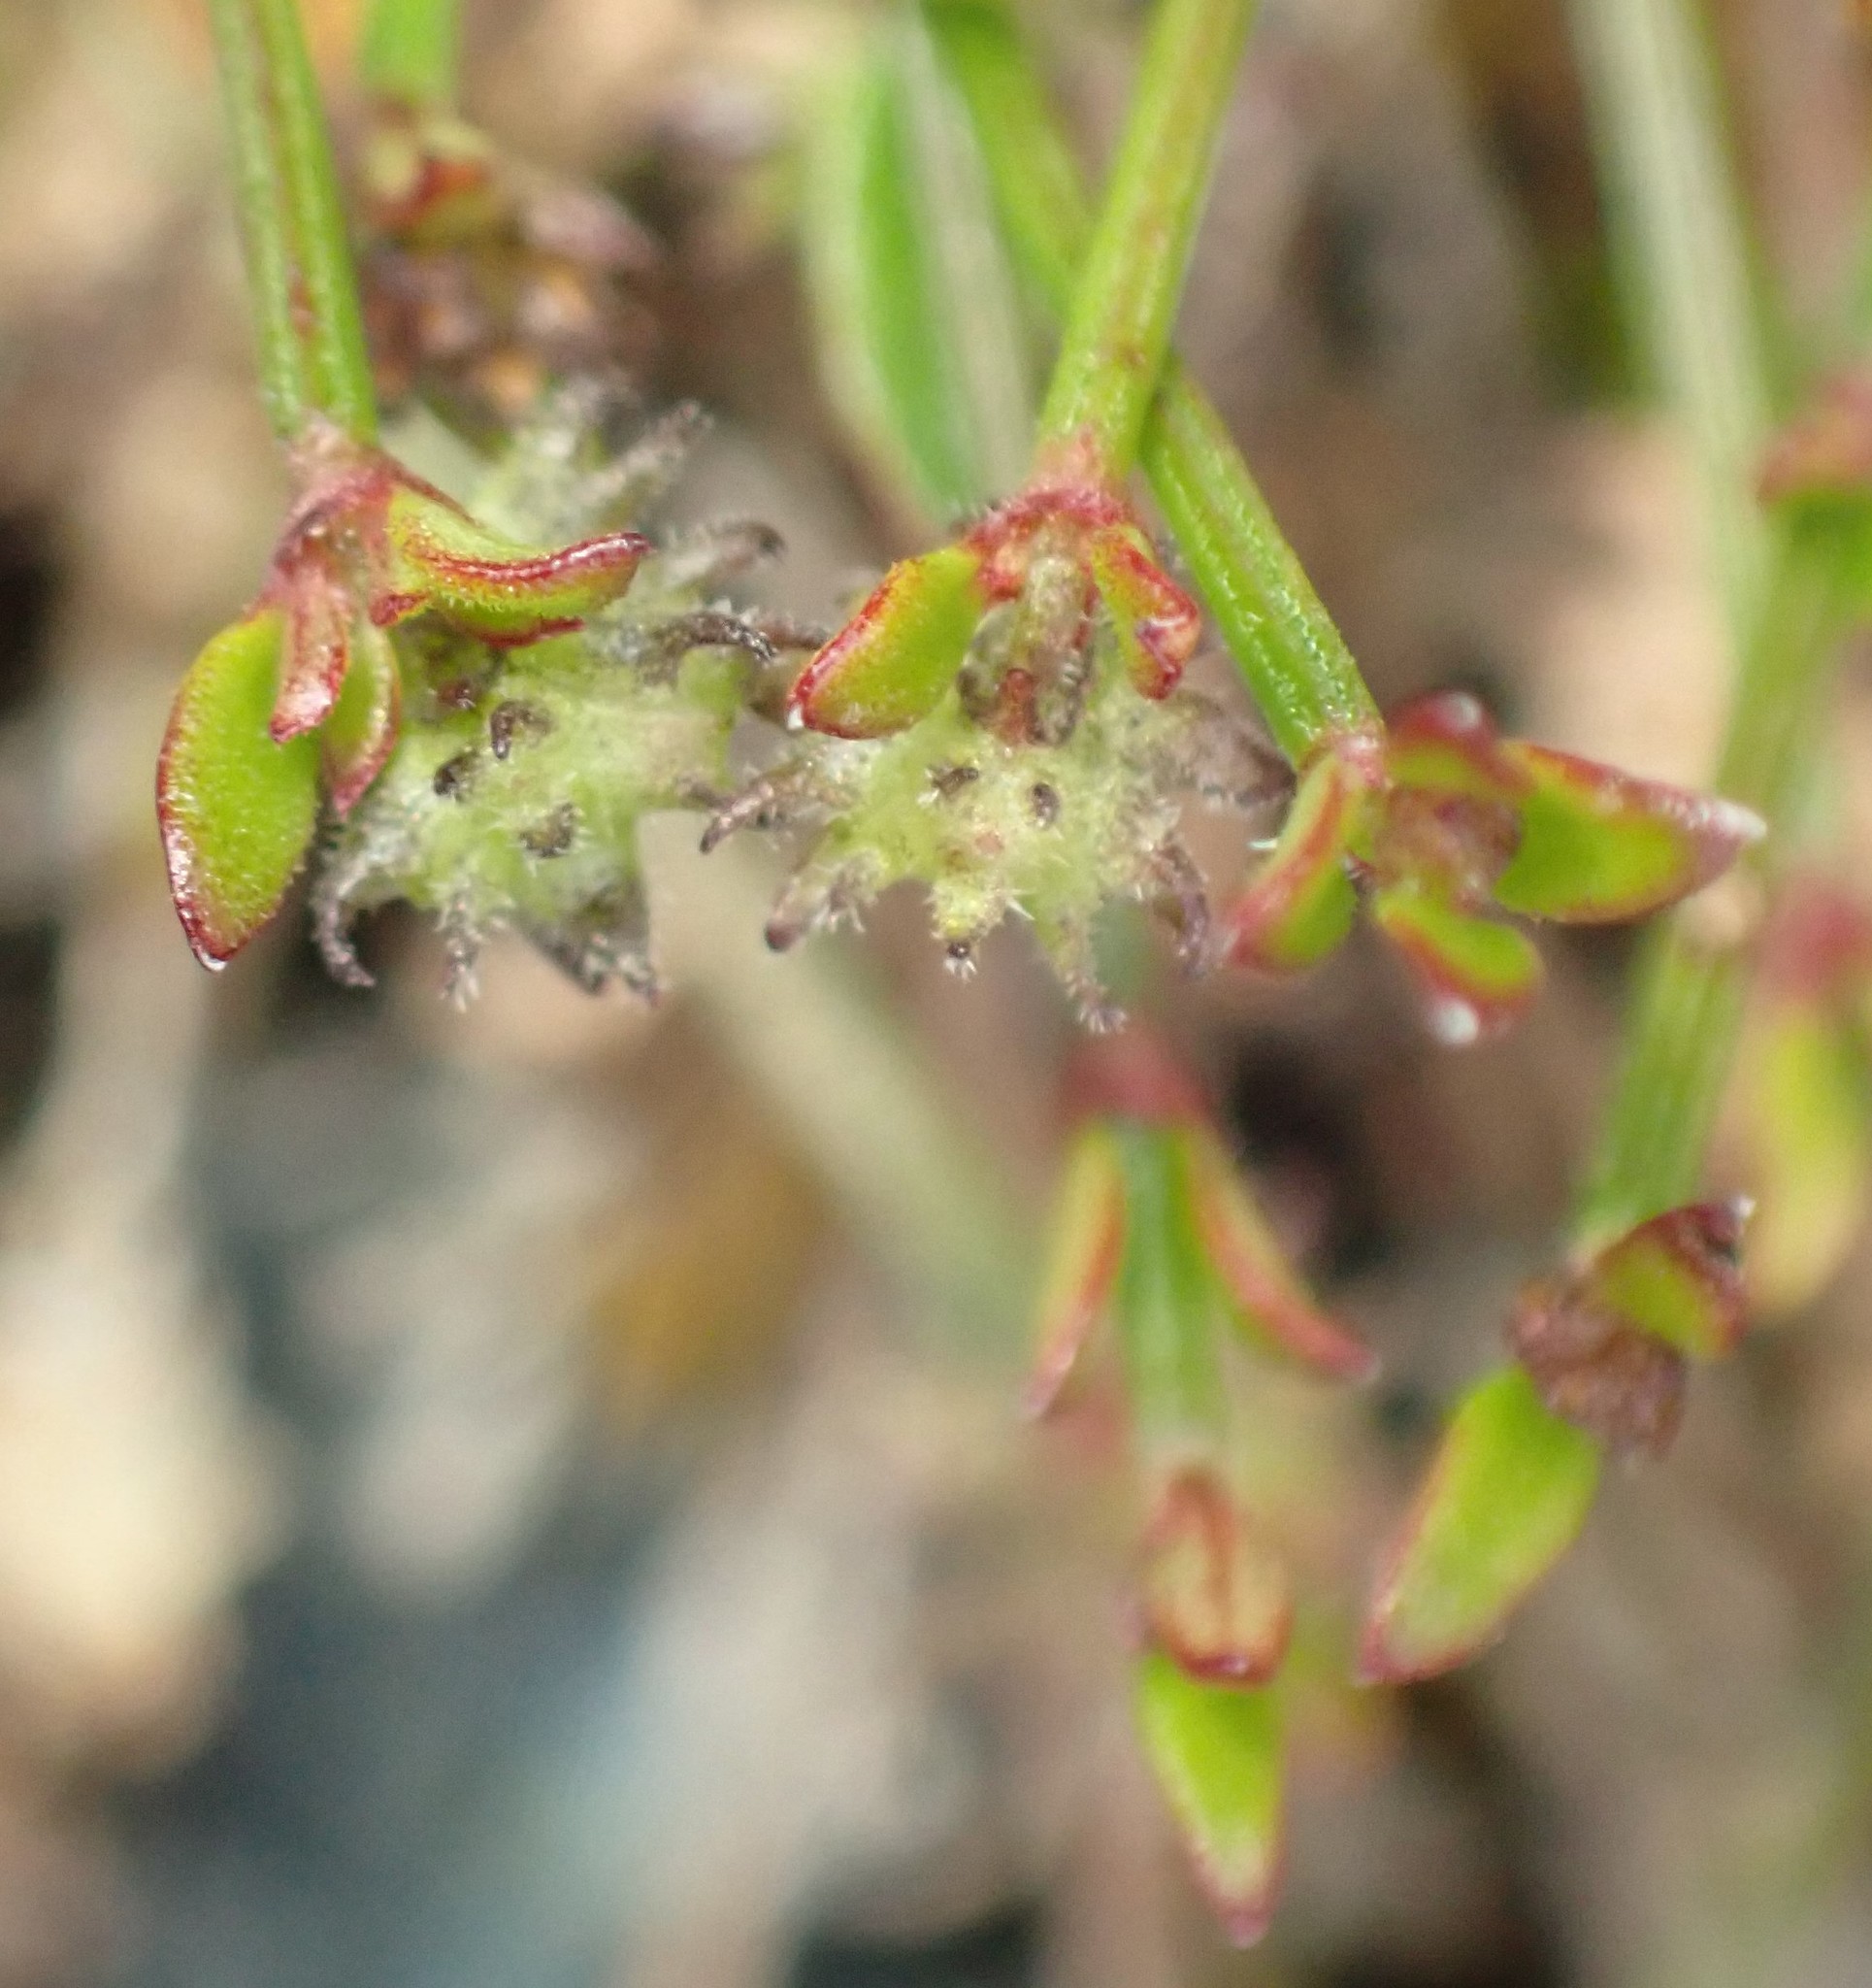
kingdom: Plantae
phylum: Tracheophyta
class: Magnoliopsida
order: Gentianales
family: Rubiaceae
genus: Opercularia
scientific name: Opercularia varia
